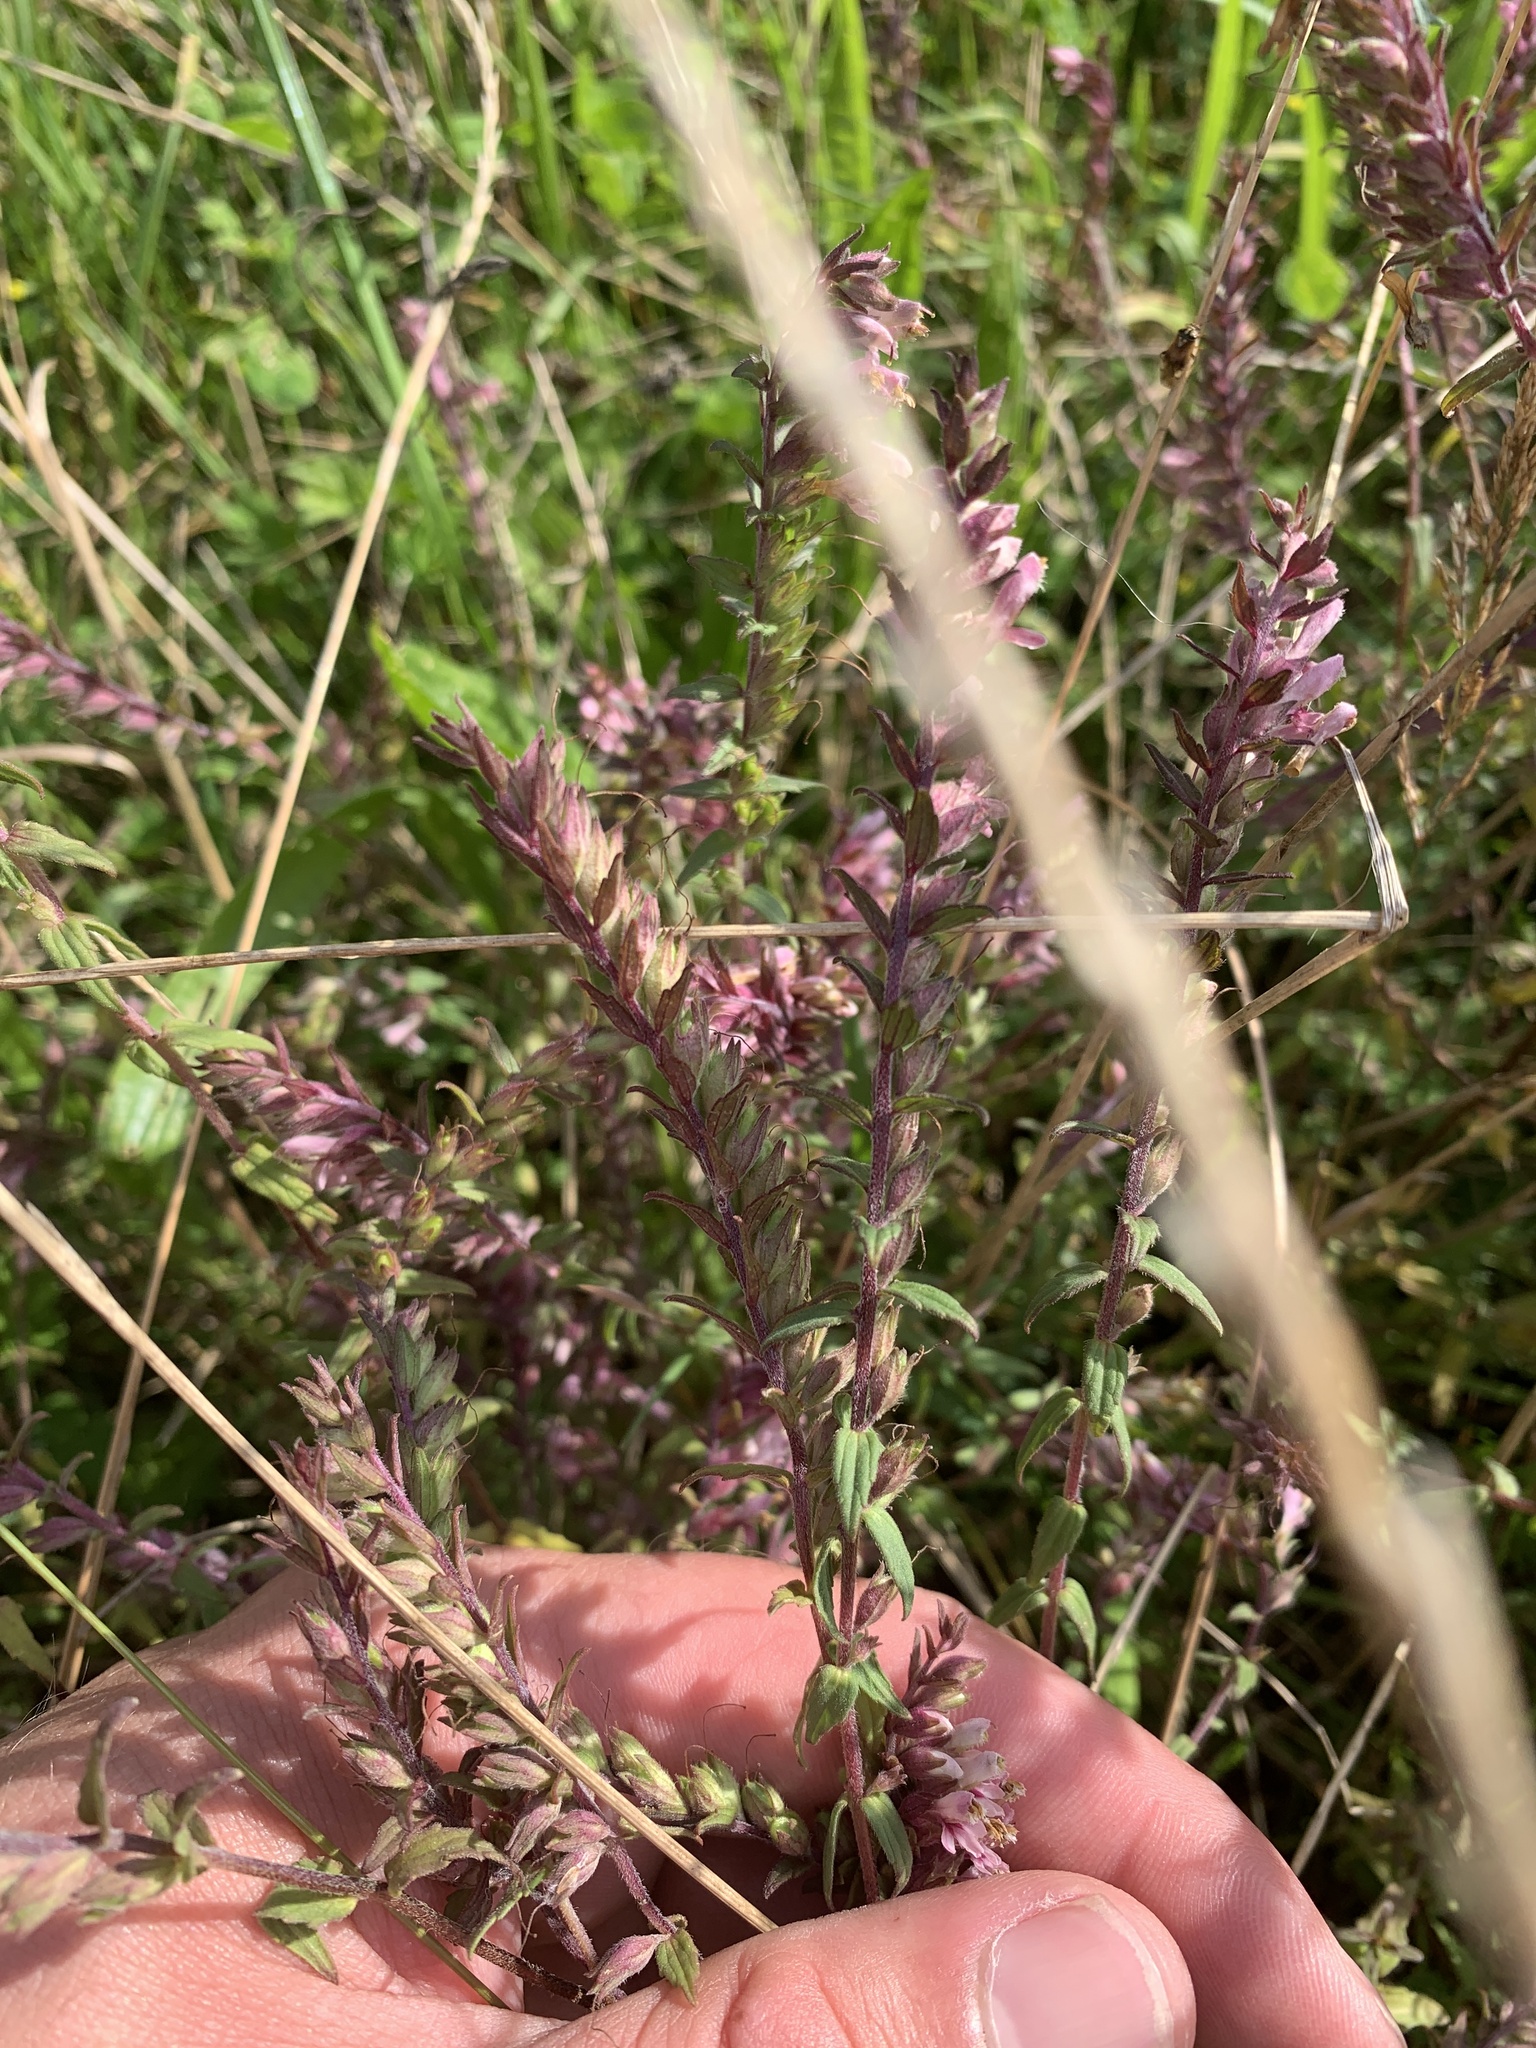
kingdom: Plantae
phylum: Tracheophyta
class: Magnoliopsida
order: Lamiales
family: Orobanchaceae
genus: Odontites
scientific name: Odontites vulgaris
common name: Broomrape
